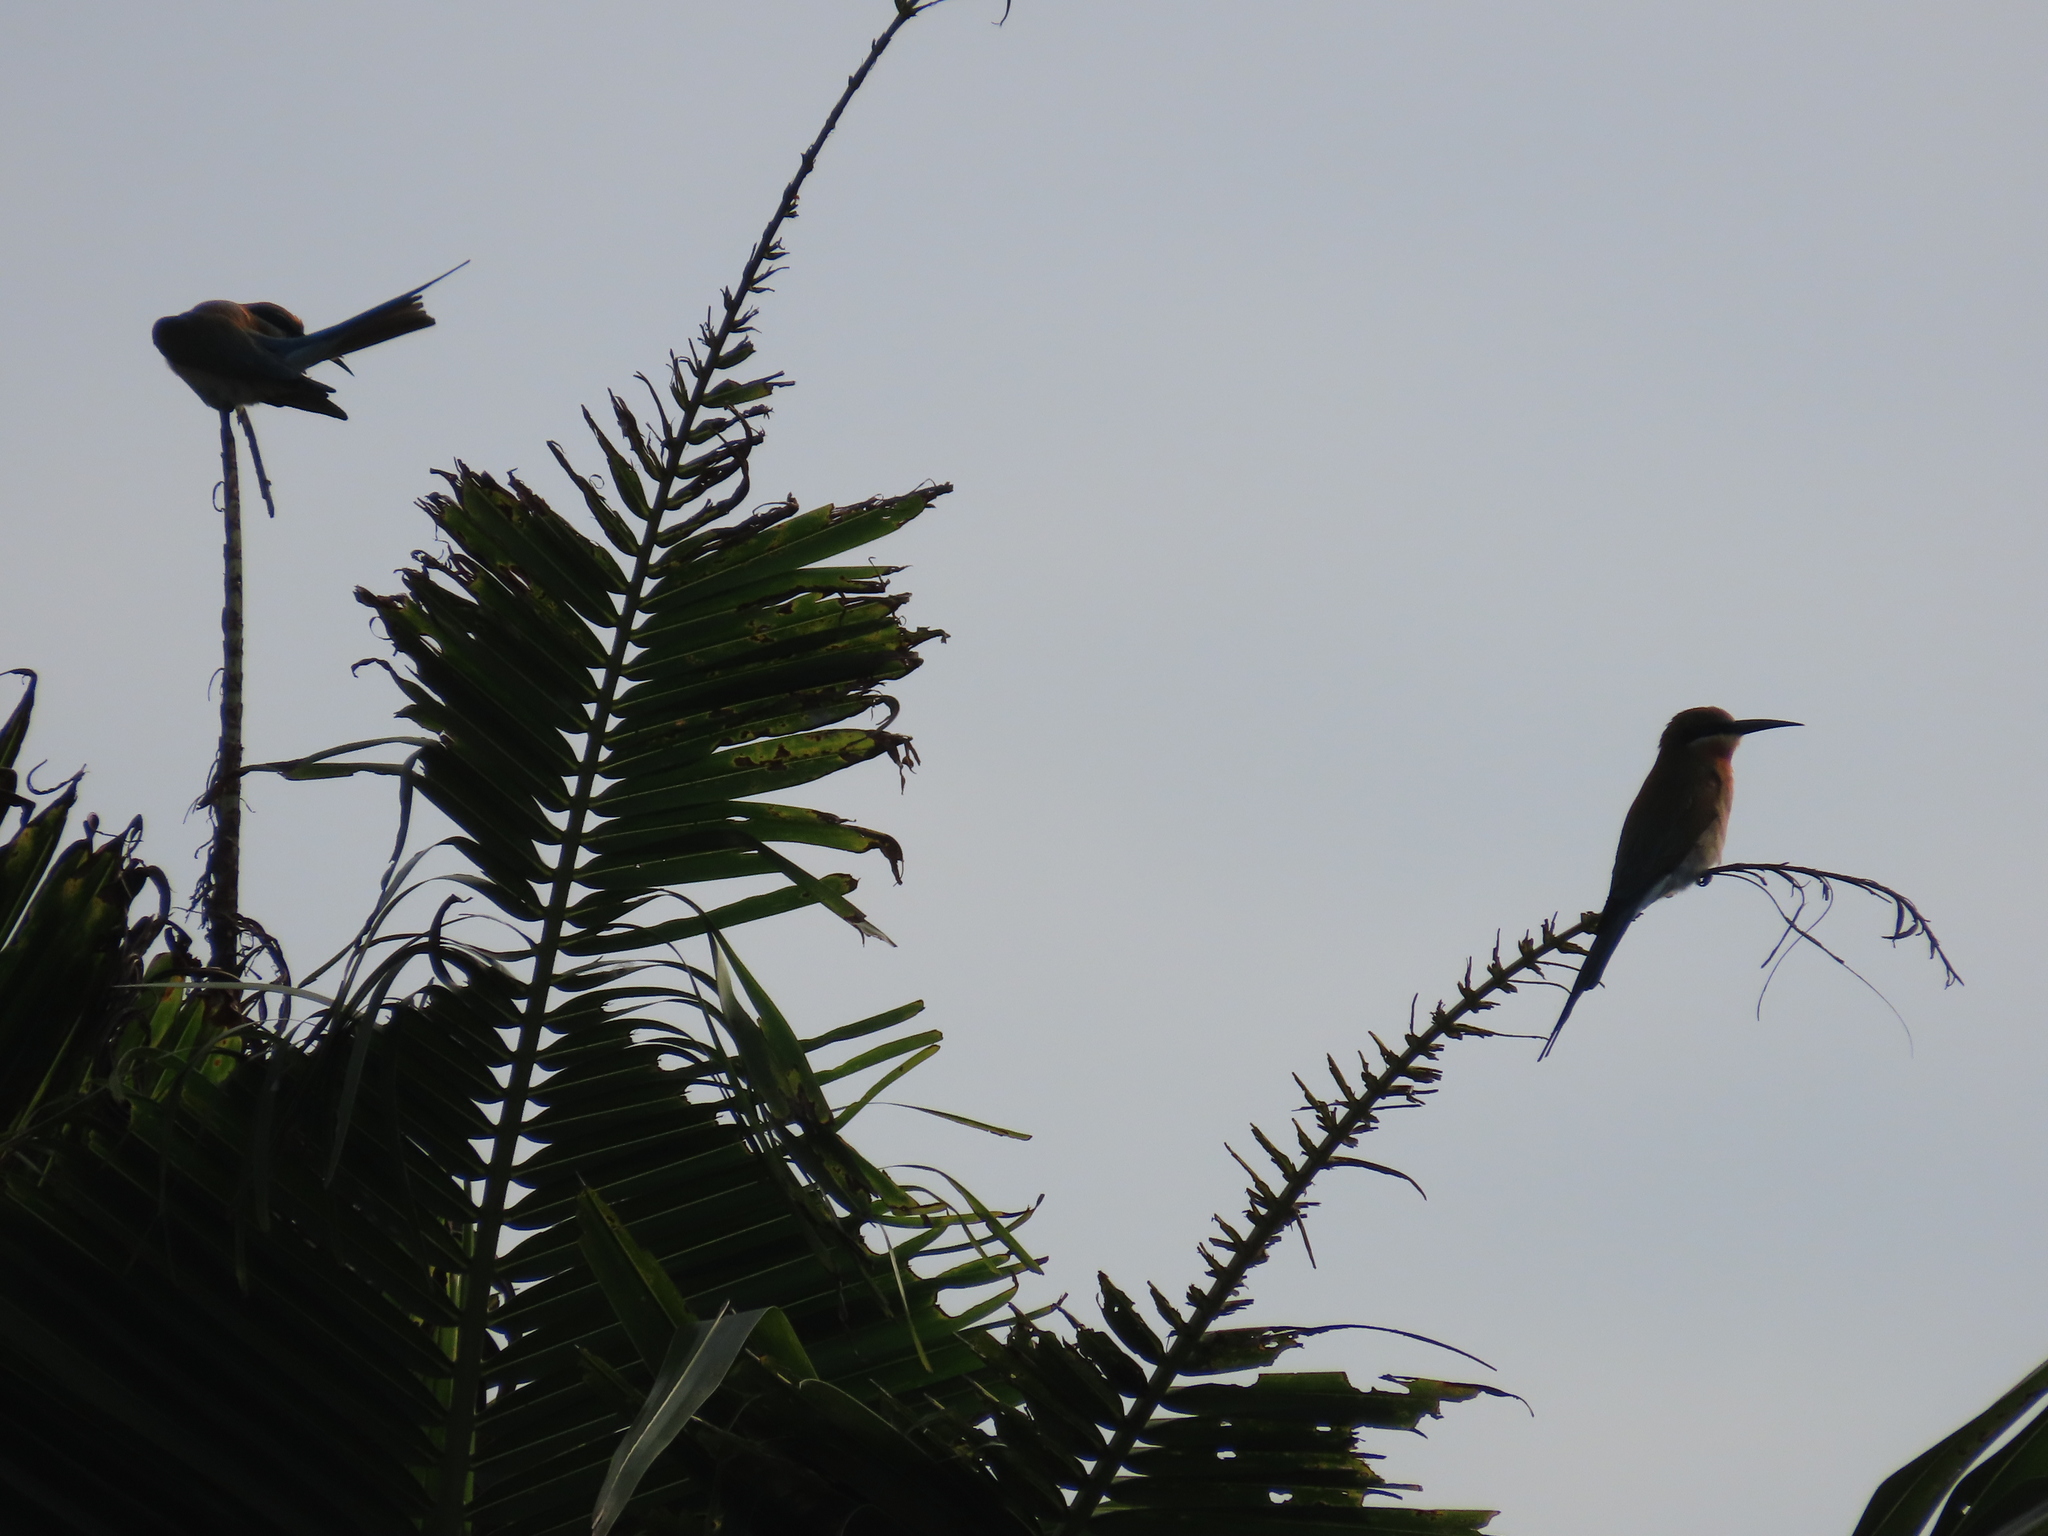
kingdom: Animalia
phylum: Chordata
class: Aves
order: Coraciiformes
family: Meropidae
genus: Merops
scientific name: Merops philippinus
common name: Blue-tailed bee-eater
